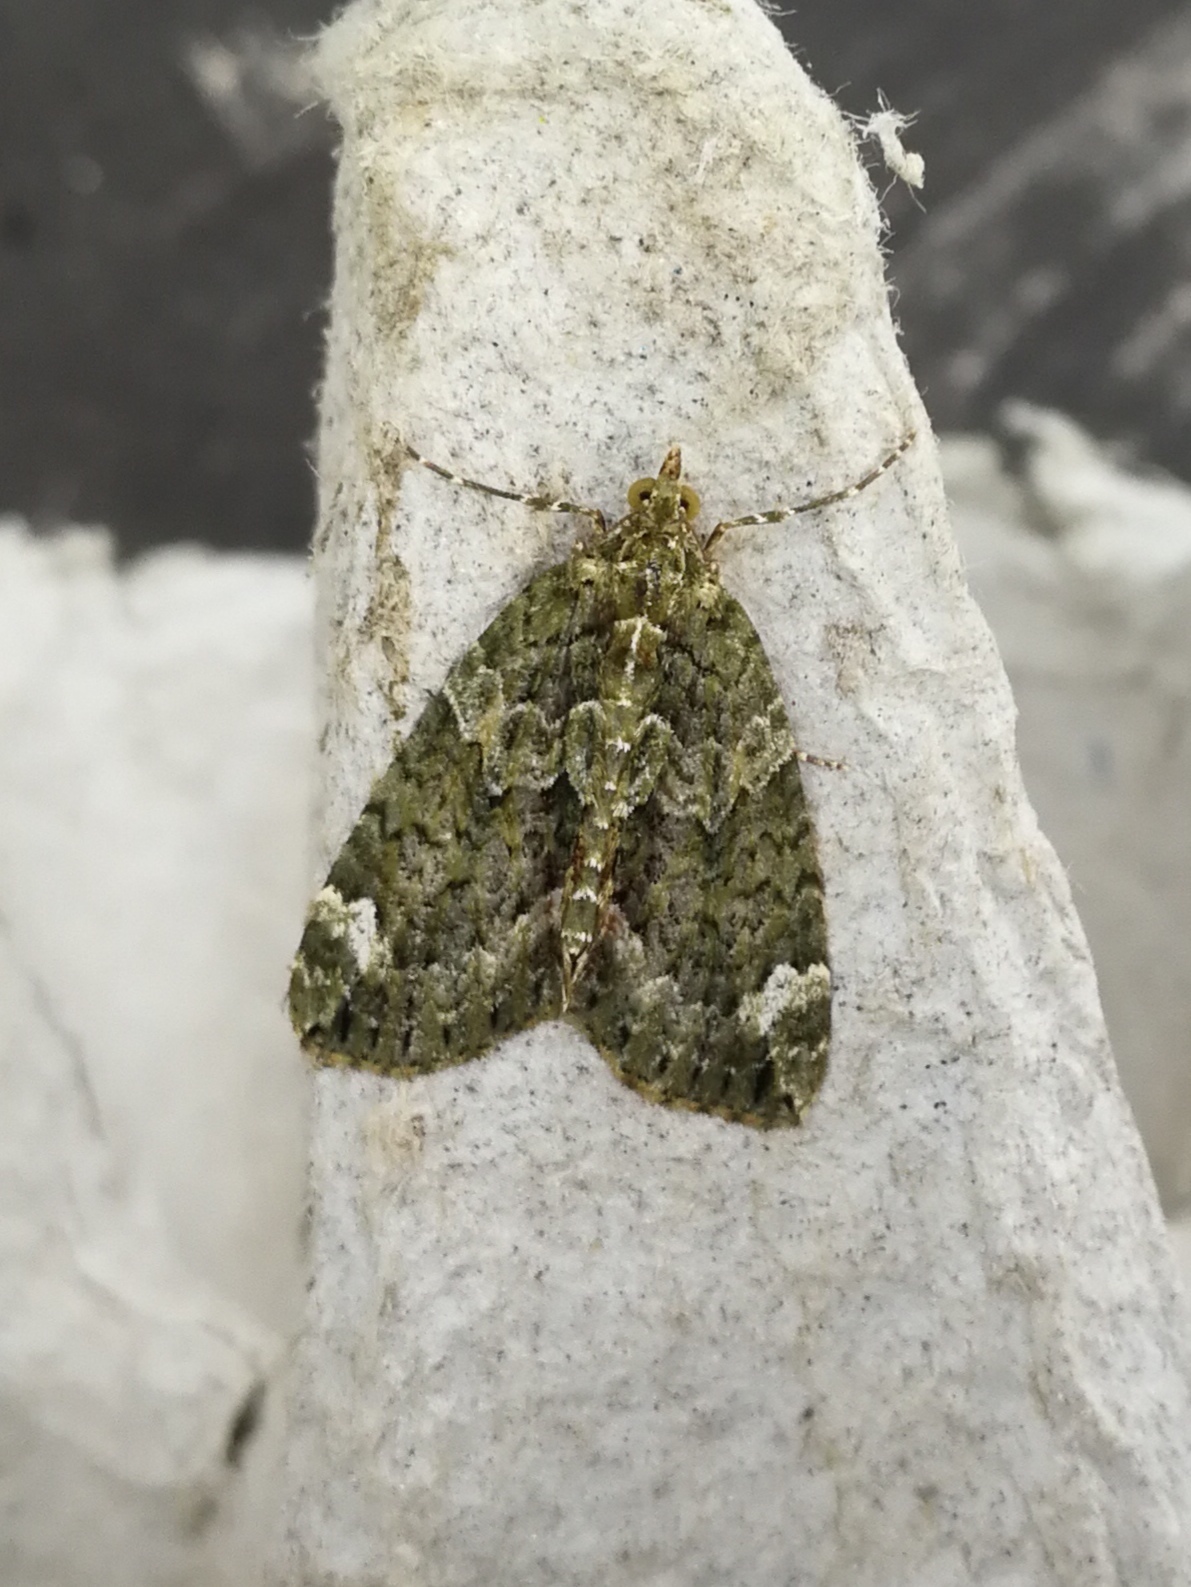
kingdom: Animalia
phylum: Arthropoda
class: Insecta
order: Lepidoptera
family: Geometridae
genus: Chloroclysta
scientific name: Chloroclysta siterata
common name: Red-green carpet
